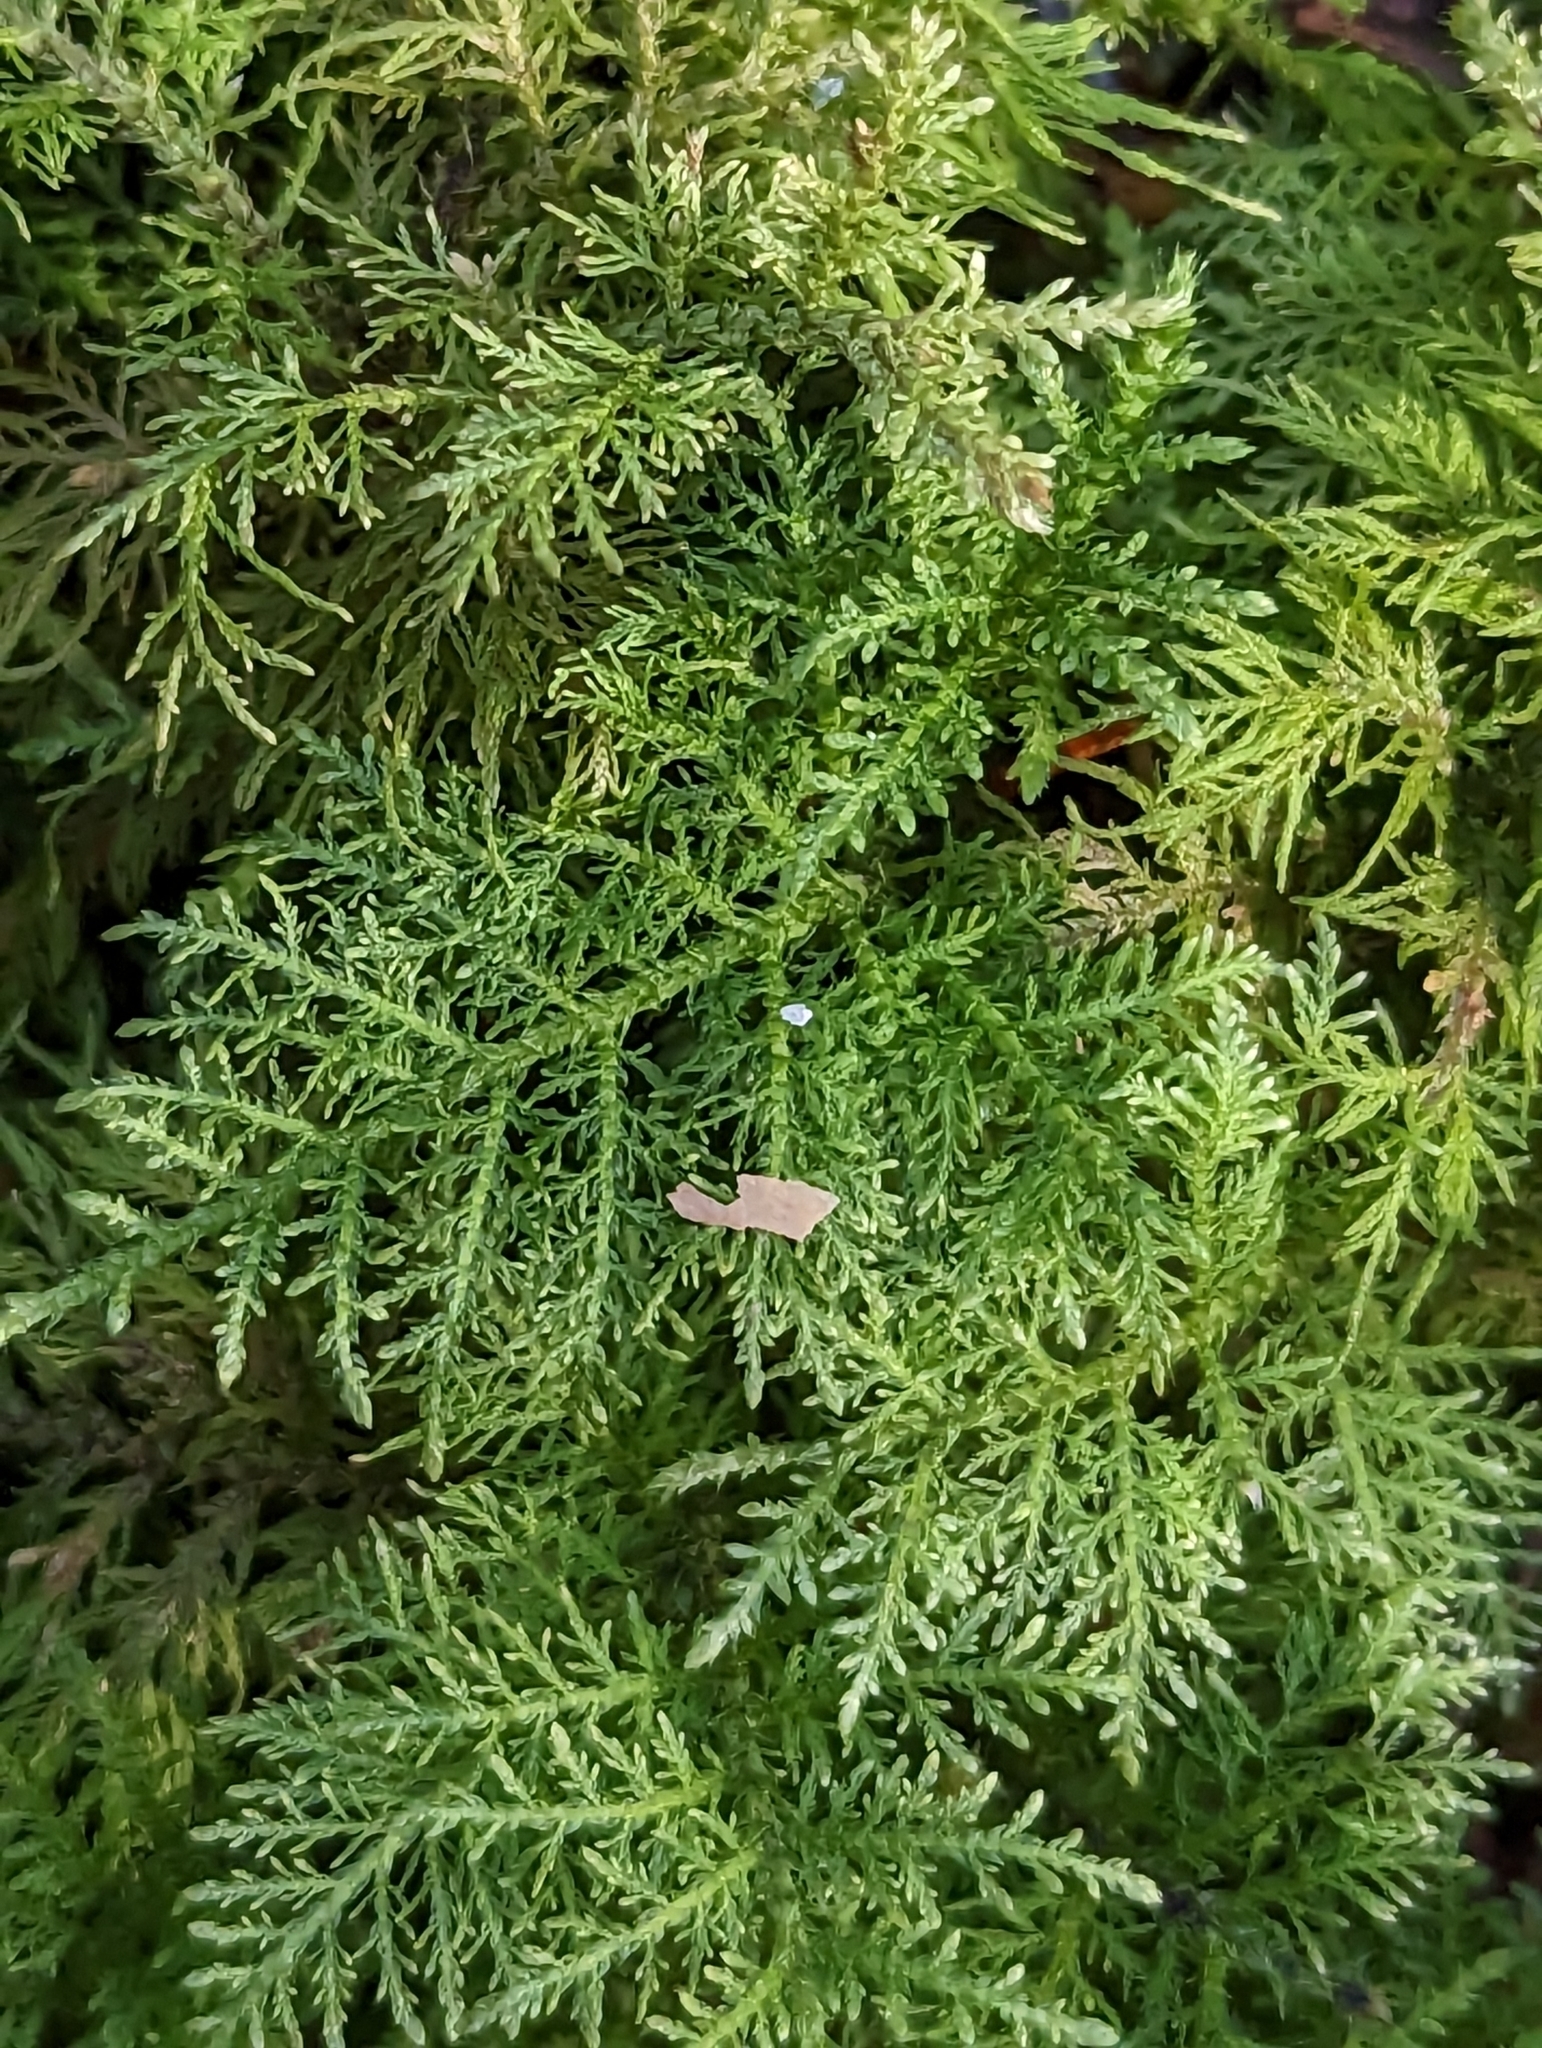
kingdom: Plantae
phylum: Bryophyta
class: Bryopsida
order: Hypnales
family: Thuidiaceae
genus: Thuidium
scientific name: Thuidium tamariscinum
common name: Common tamarisk-moss
